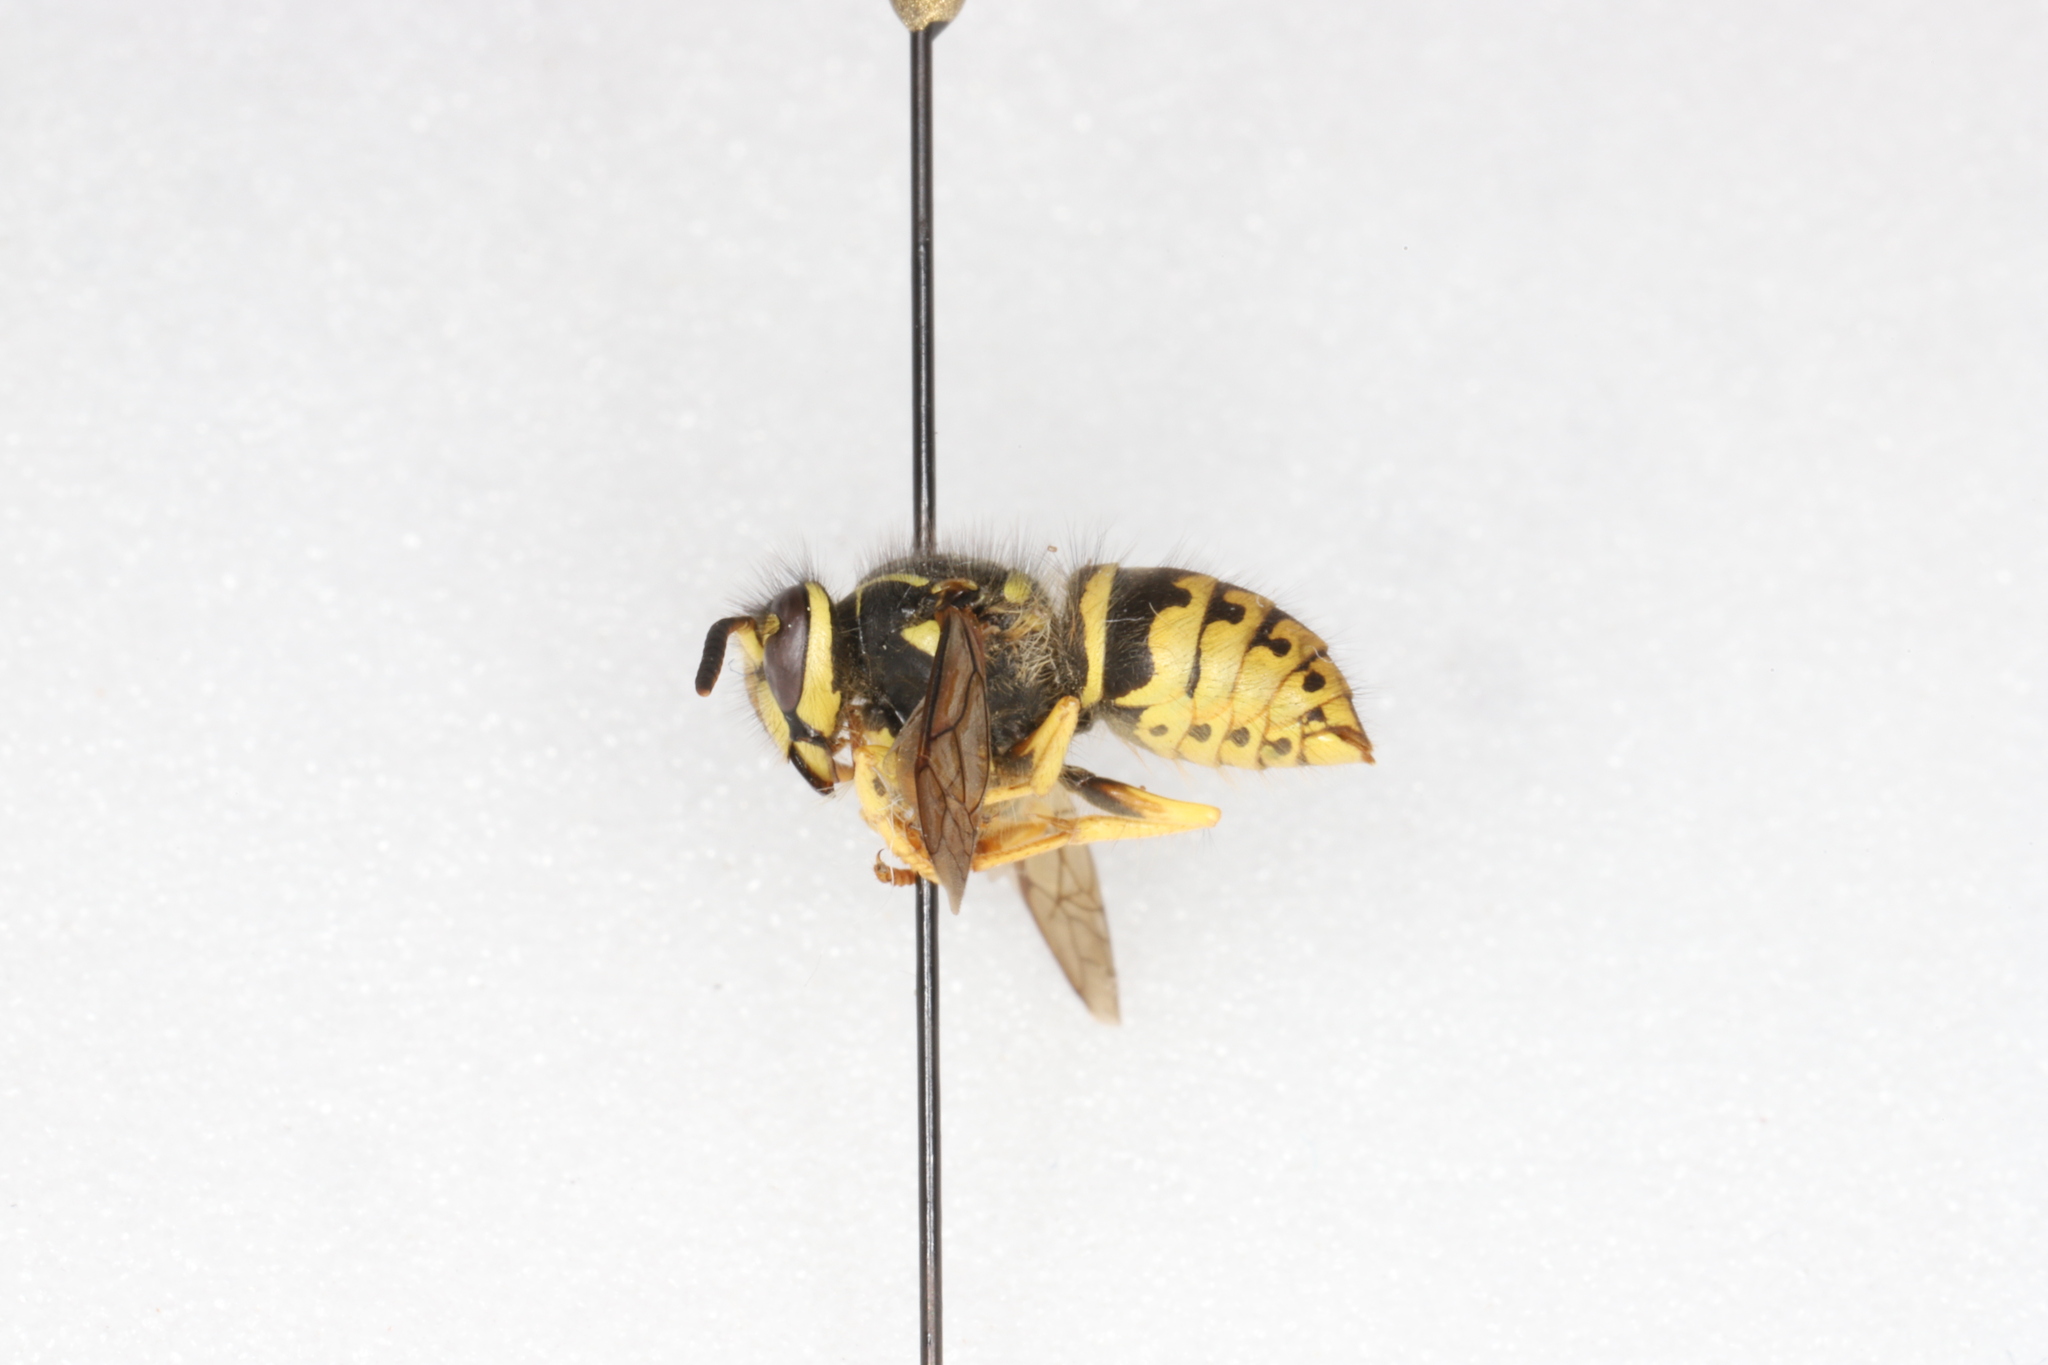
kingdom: Animalia
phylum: Arthropoda
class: Insecta
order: Hymenoptera
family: Vespidae
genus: Dolichovespula
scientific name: Dolichovespula arenaria
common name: Aerial yellowjacket
